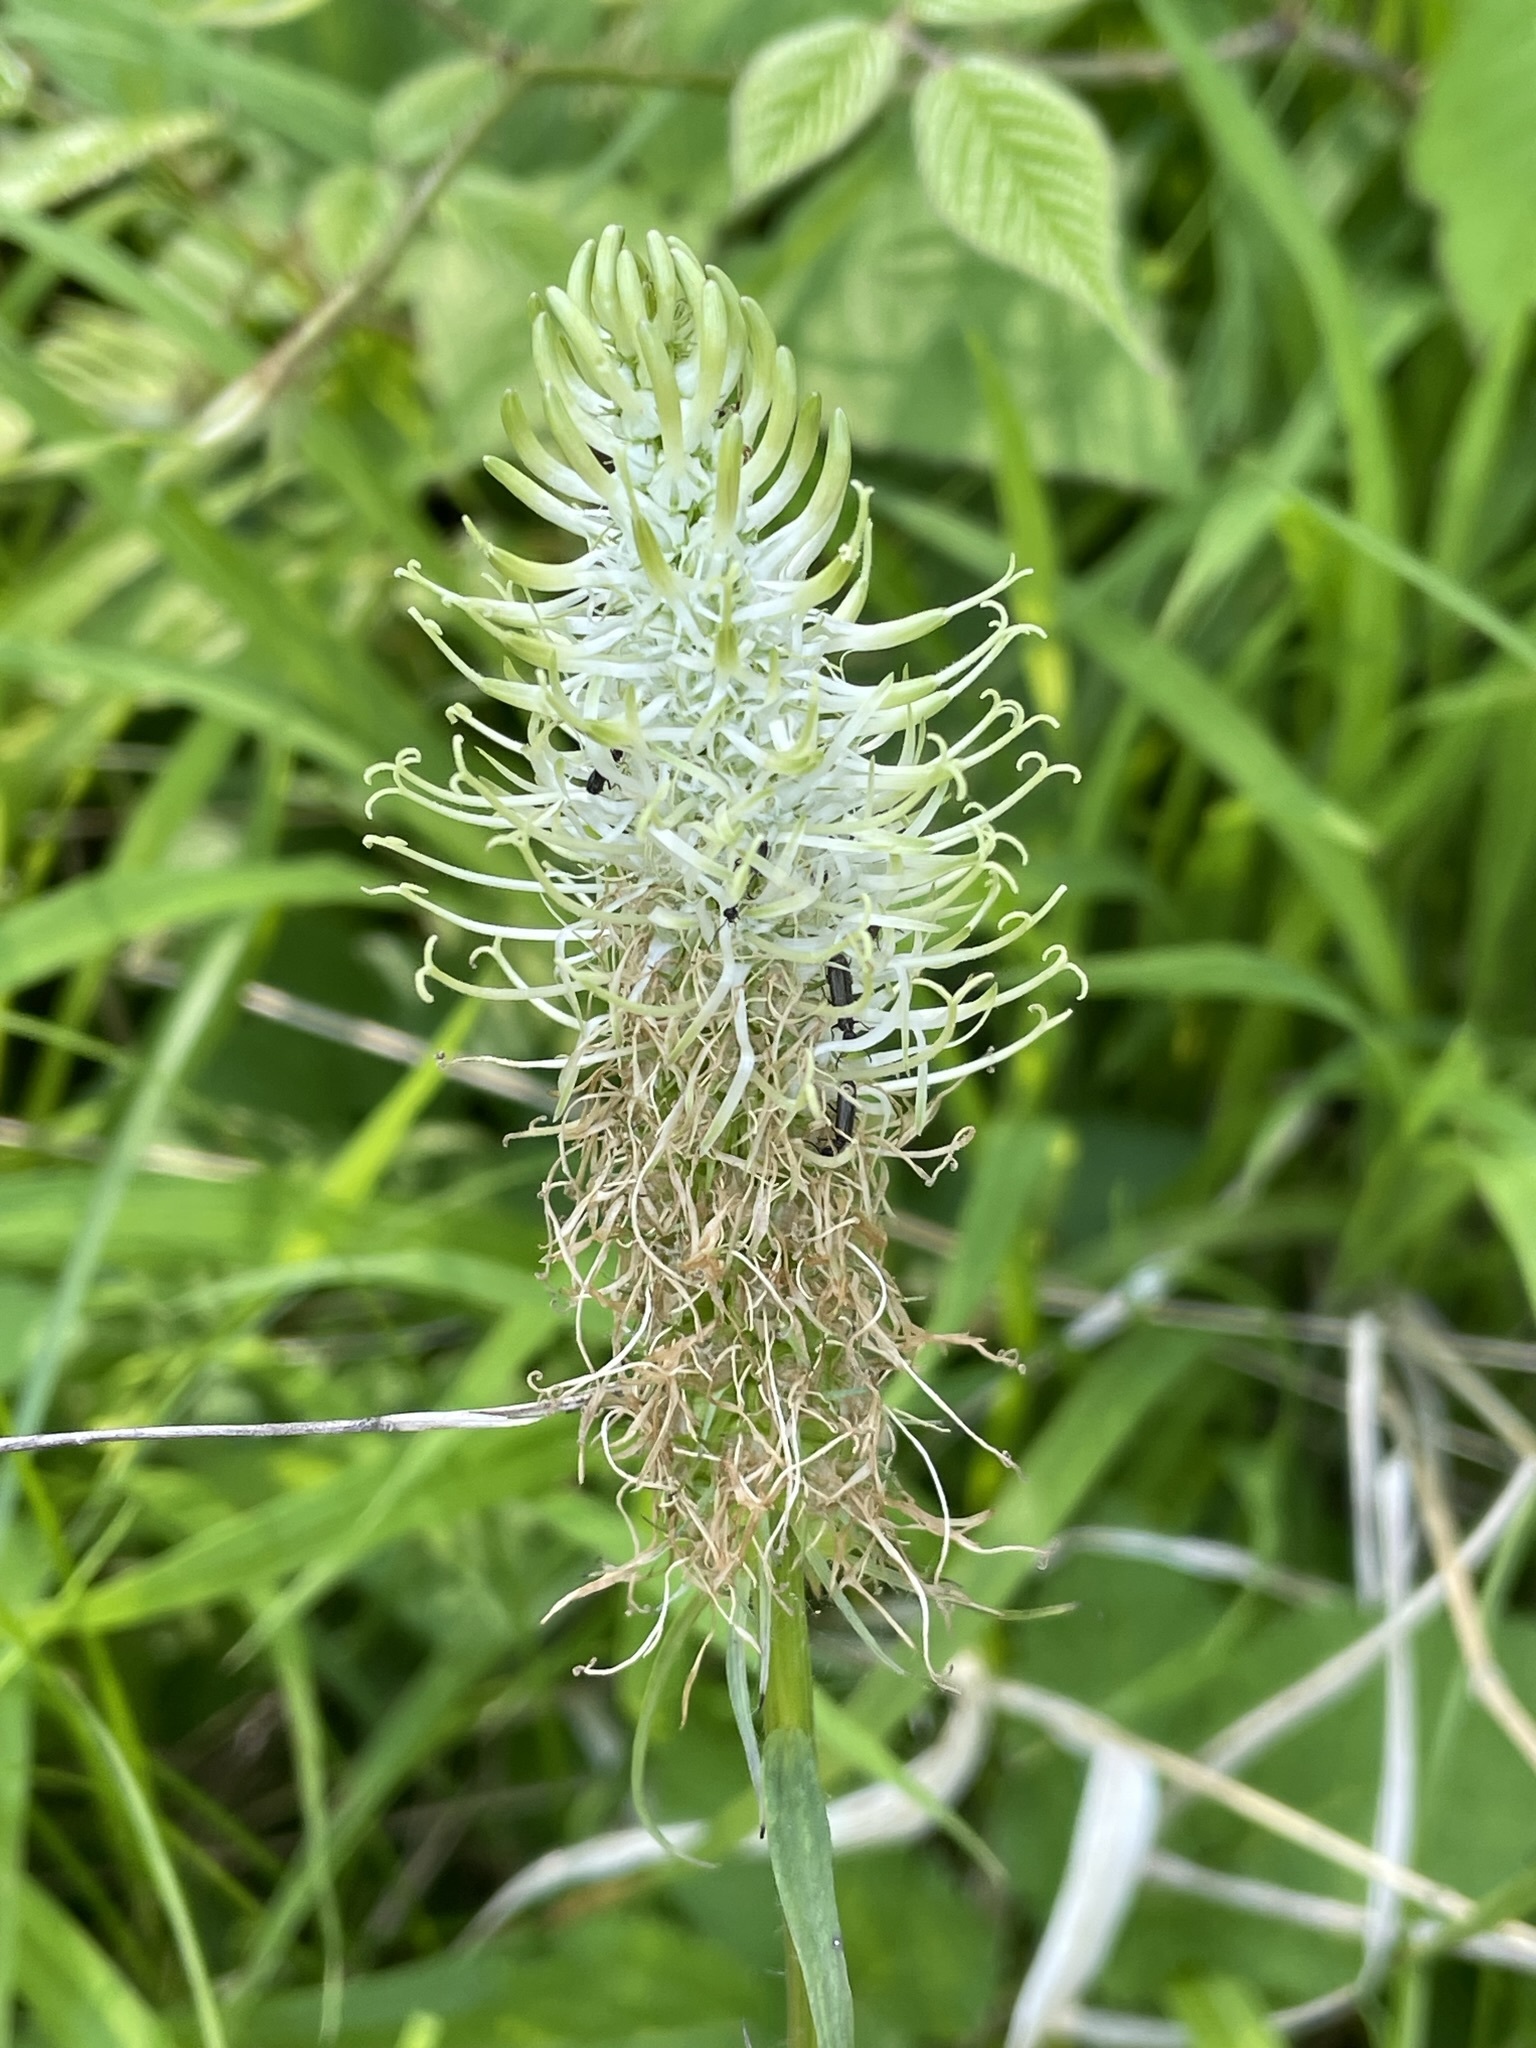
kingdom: Plantae
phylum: Tracheophyta
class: Magnoliopsida
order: Asterales
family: Campanulaceae
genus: Phyteuma
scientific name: Phyteuma spicatum
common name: Spiked rampion
